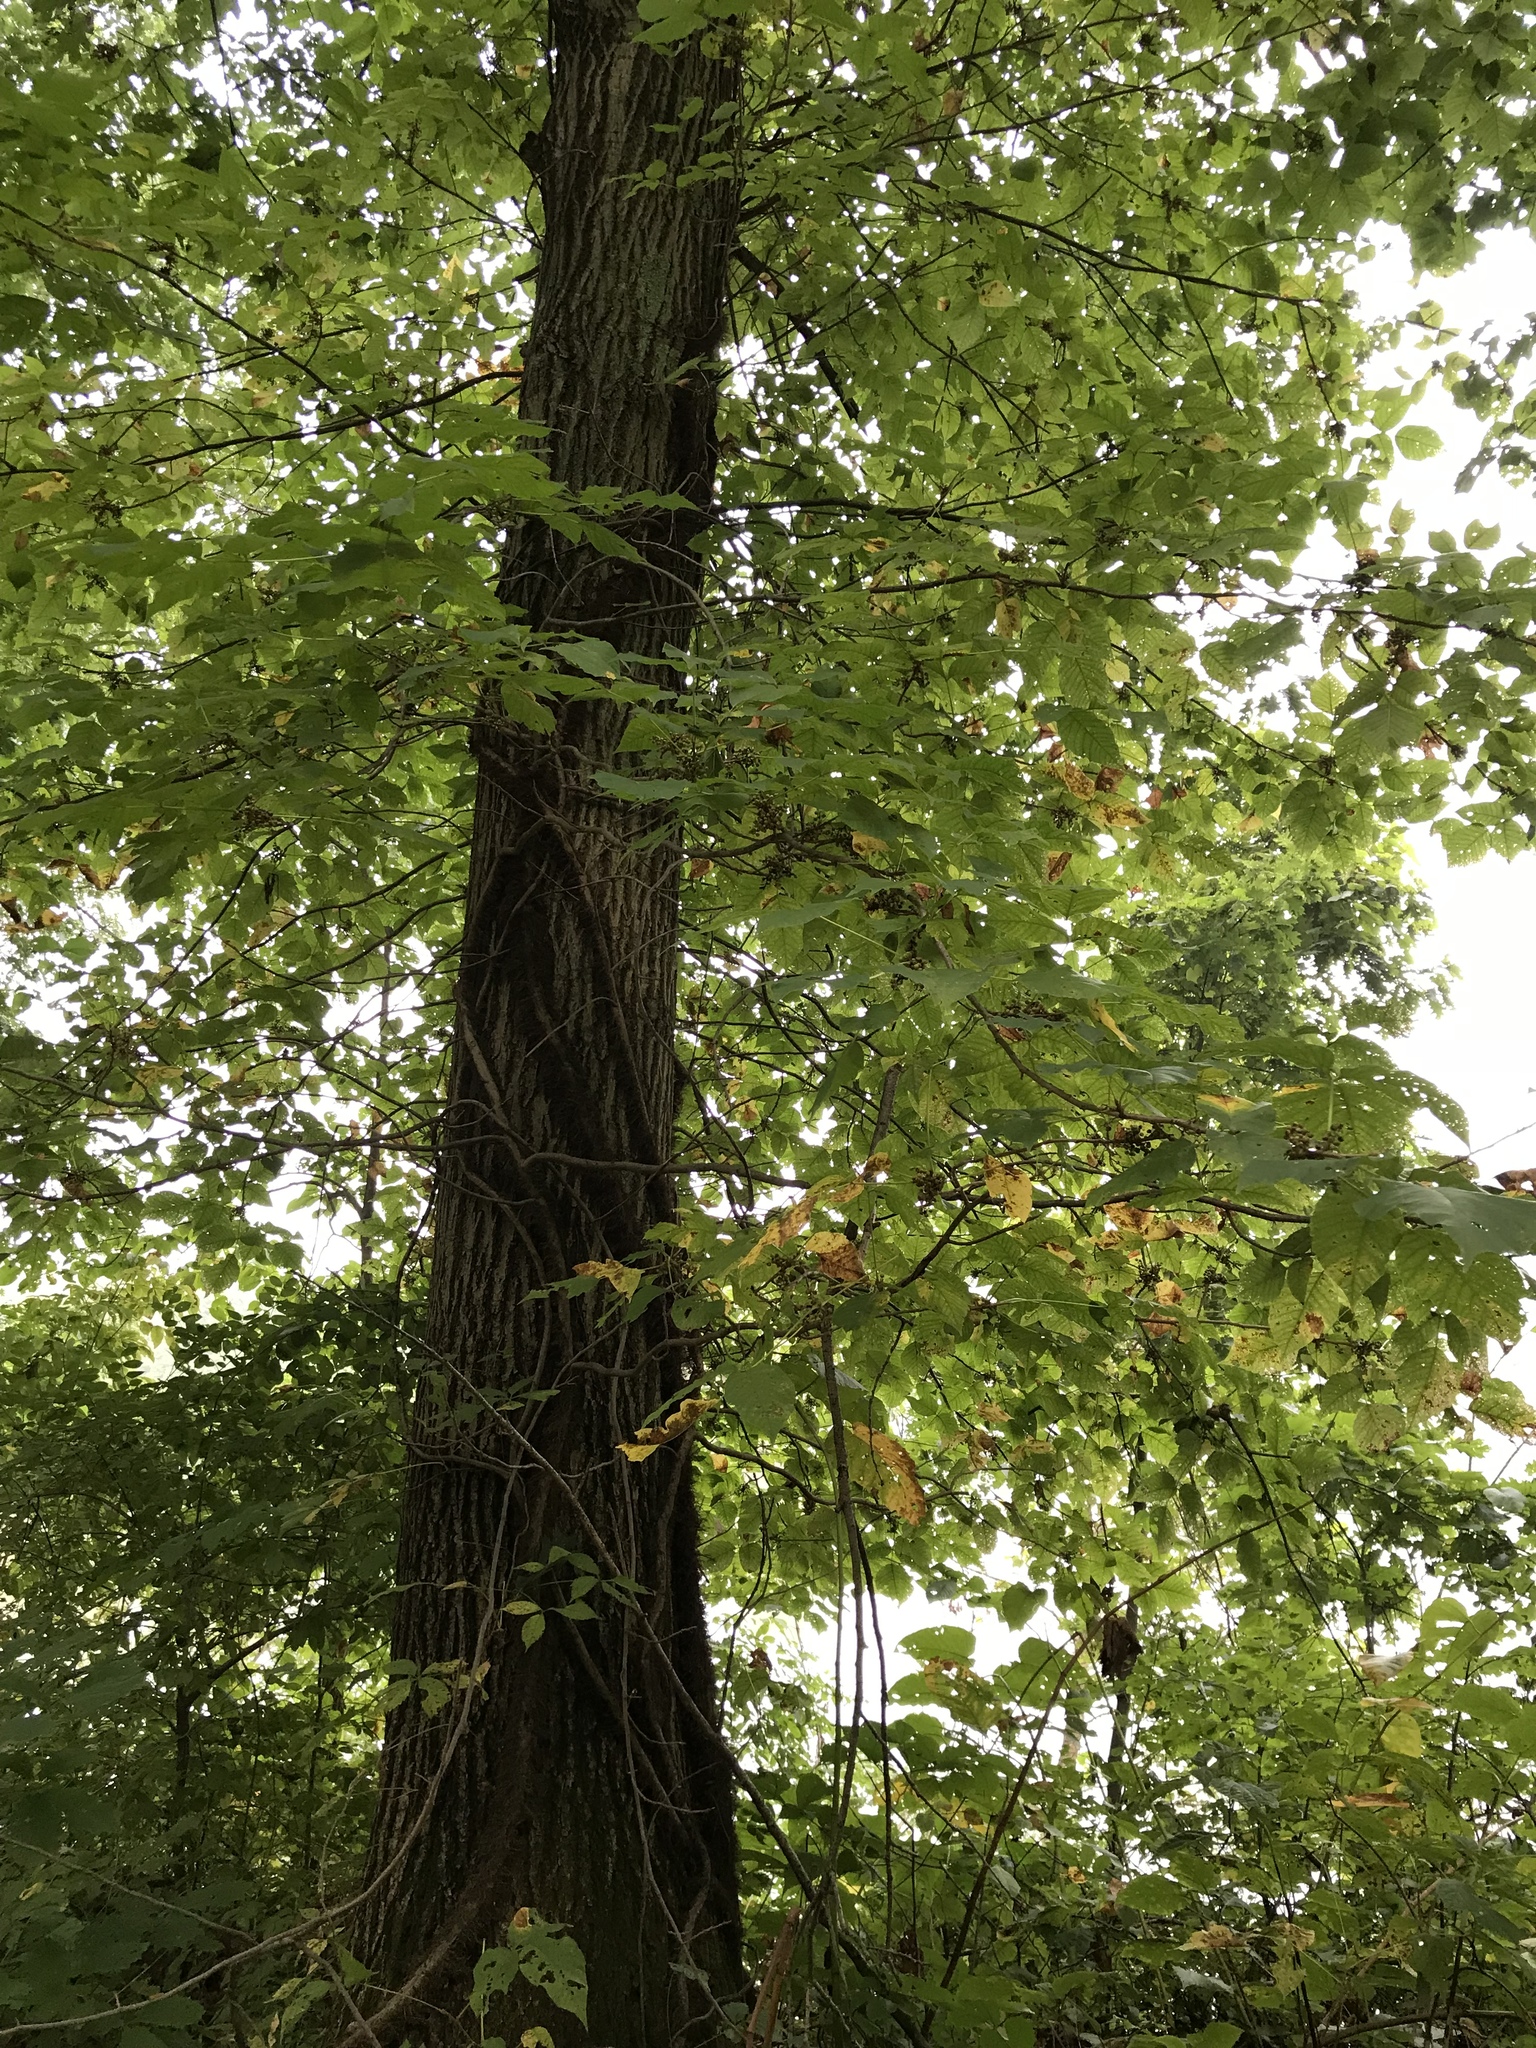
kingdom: Plantae
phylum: Tracheophyta
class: Magnoliopsida
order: Sapindales
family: Anacardiaceae
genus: Toxicodendron
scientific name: Toxicodendron radicans
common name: Poison ivy
